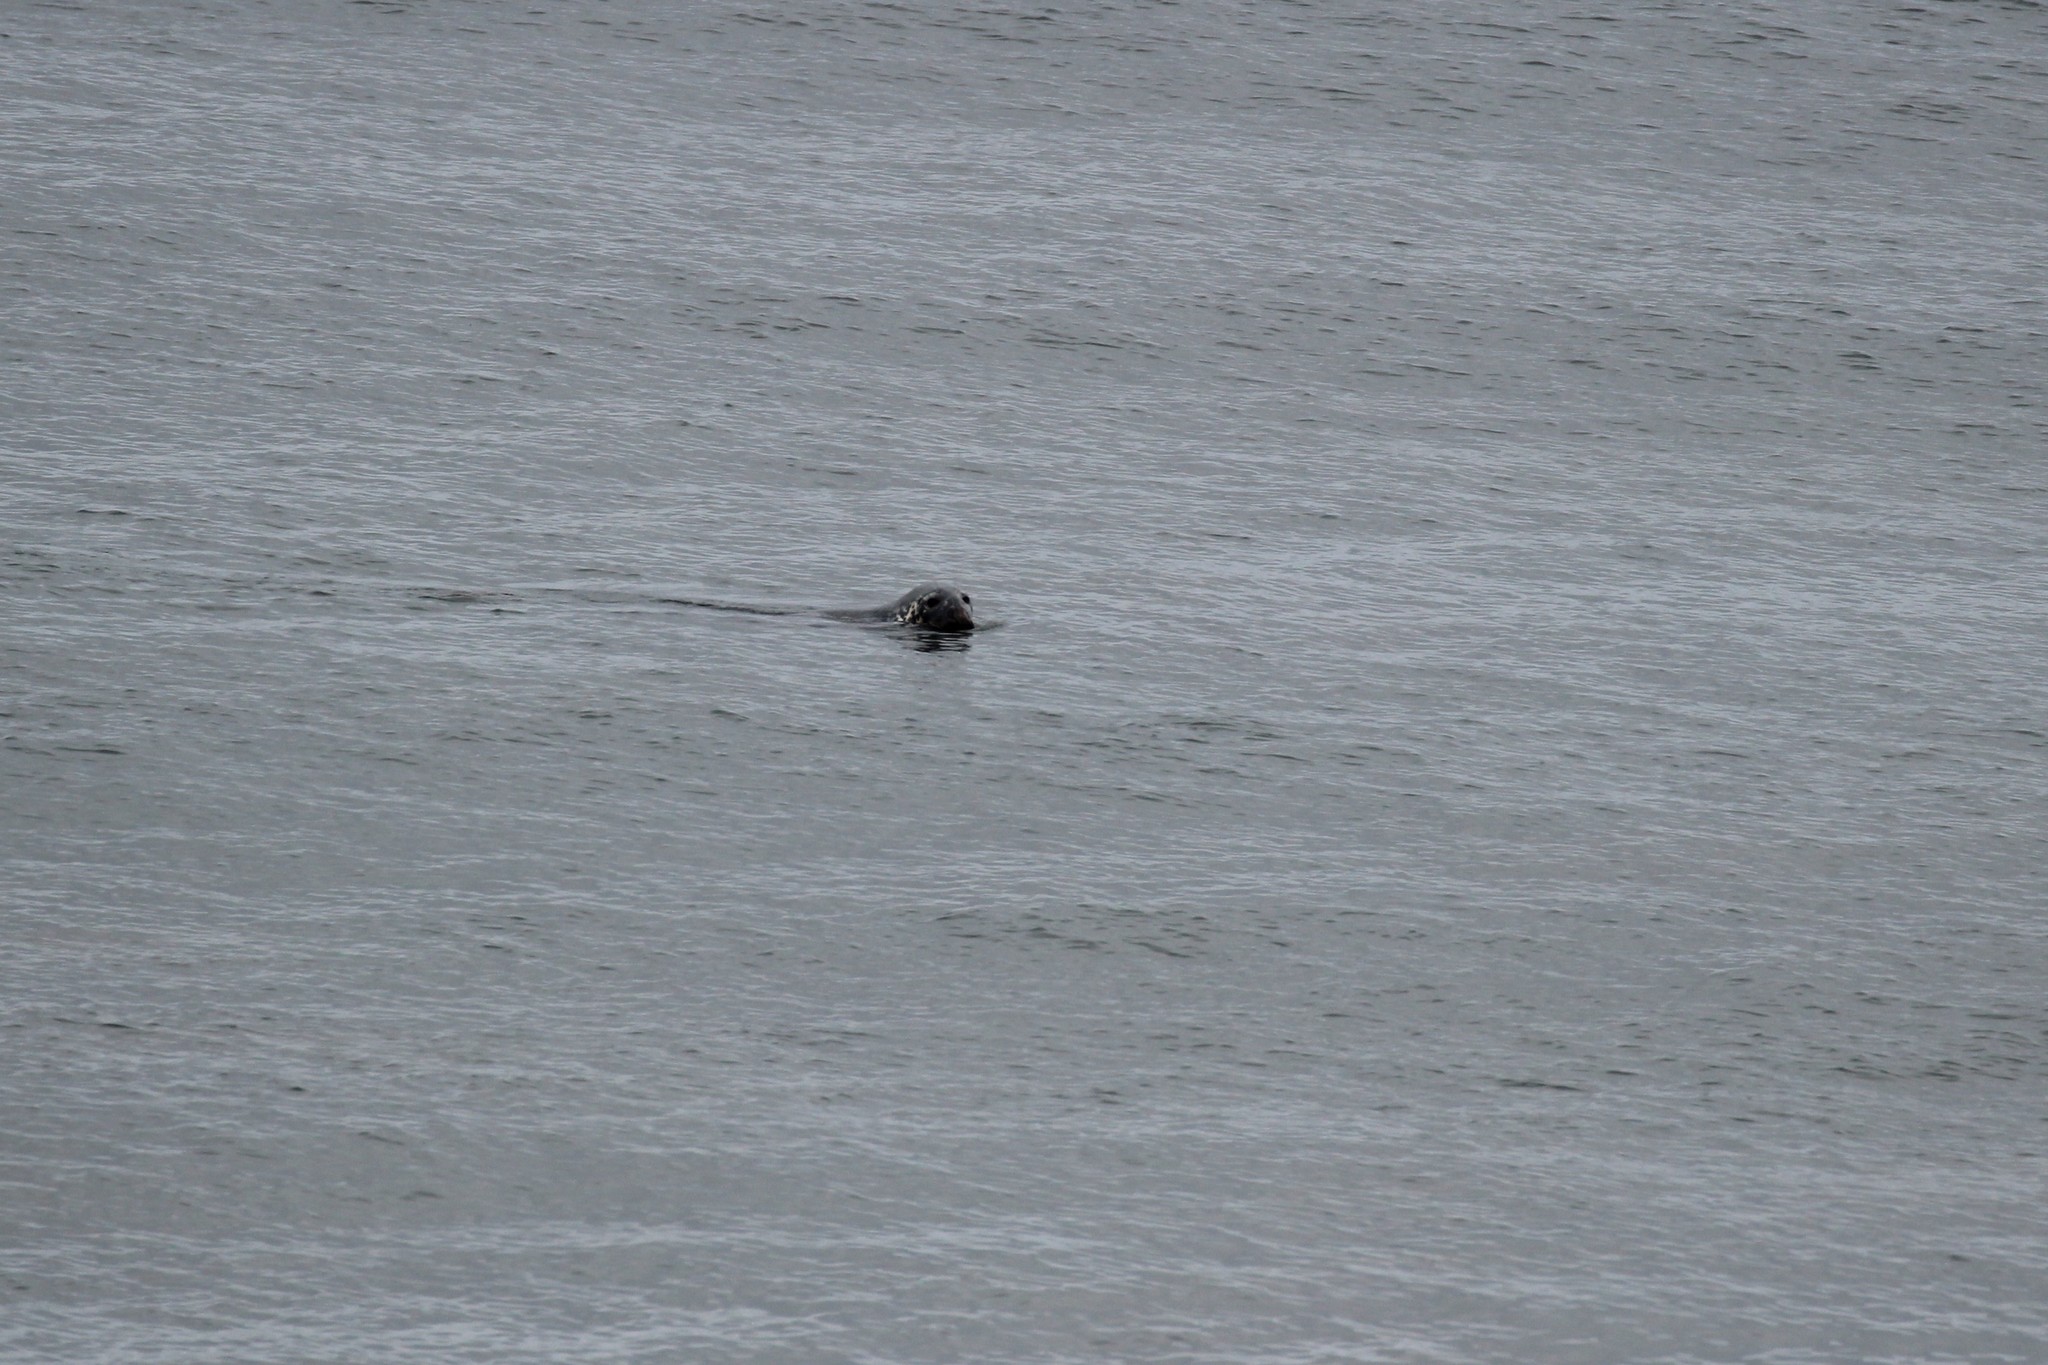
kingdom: Animalia
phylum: Chordata
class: Mammalia
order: Carnivora
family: Phocidae
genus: Halichoerus
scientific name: Halichoerus grypus
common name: Grey seal
